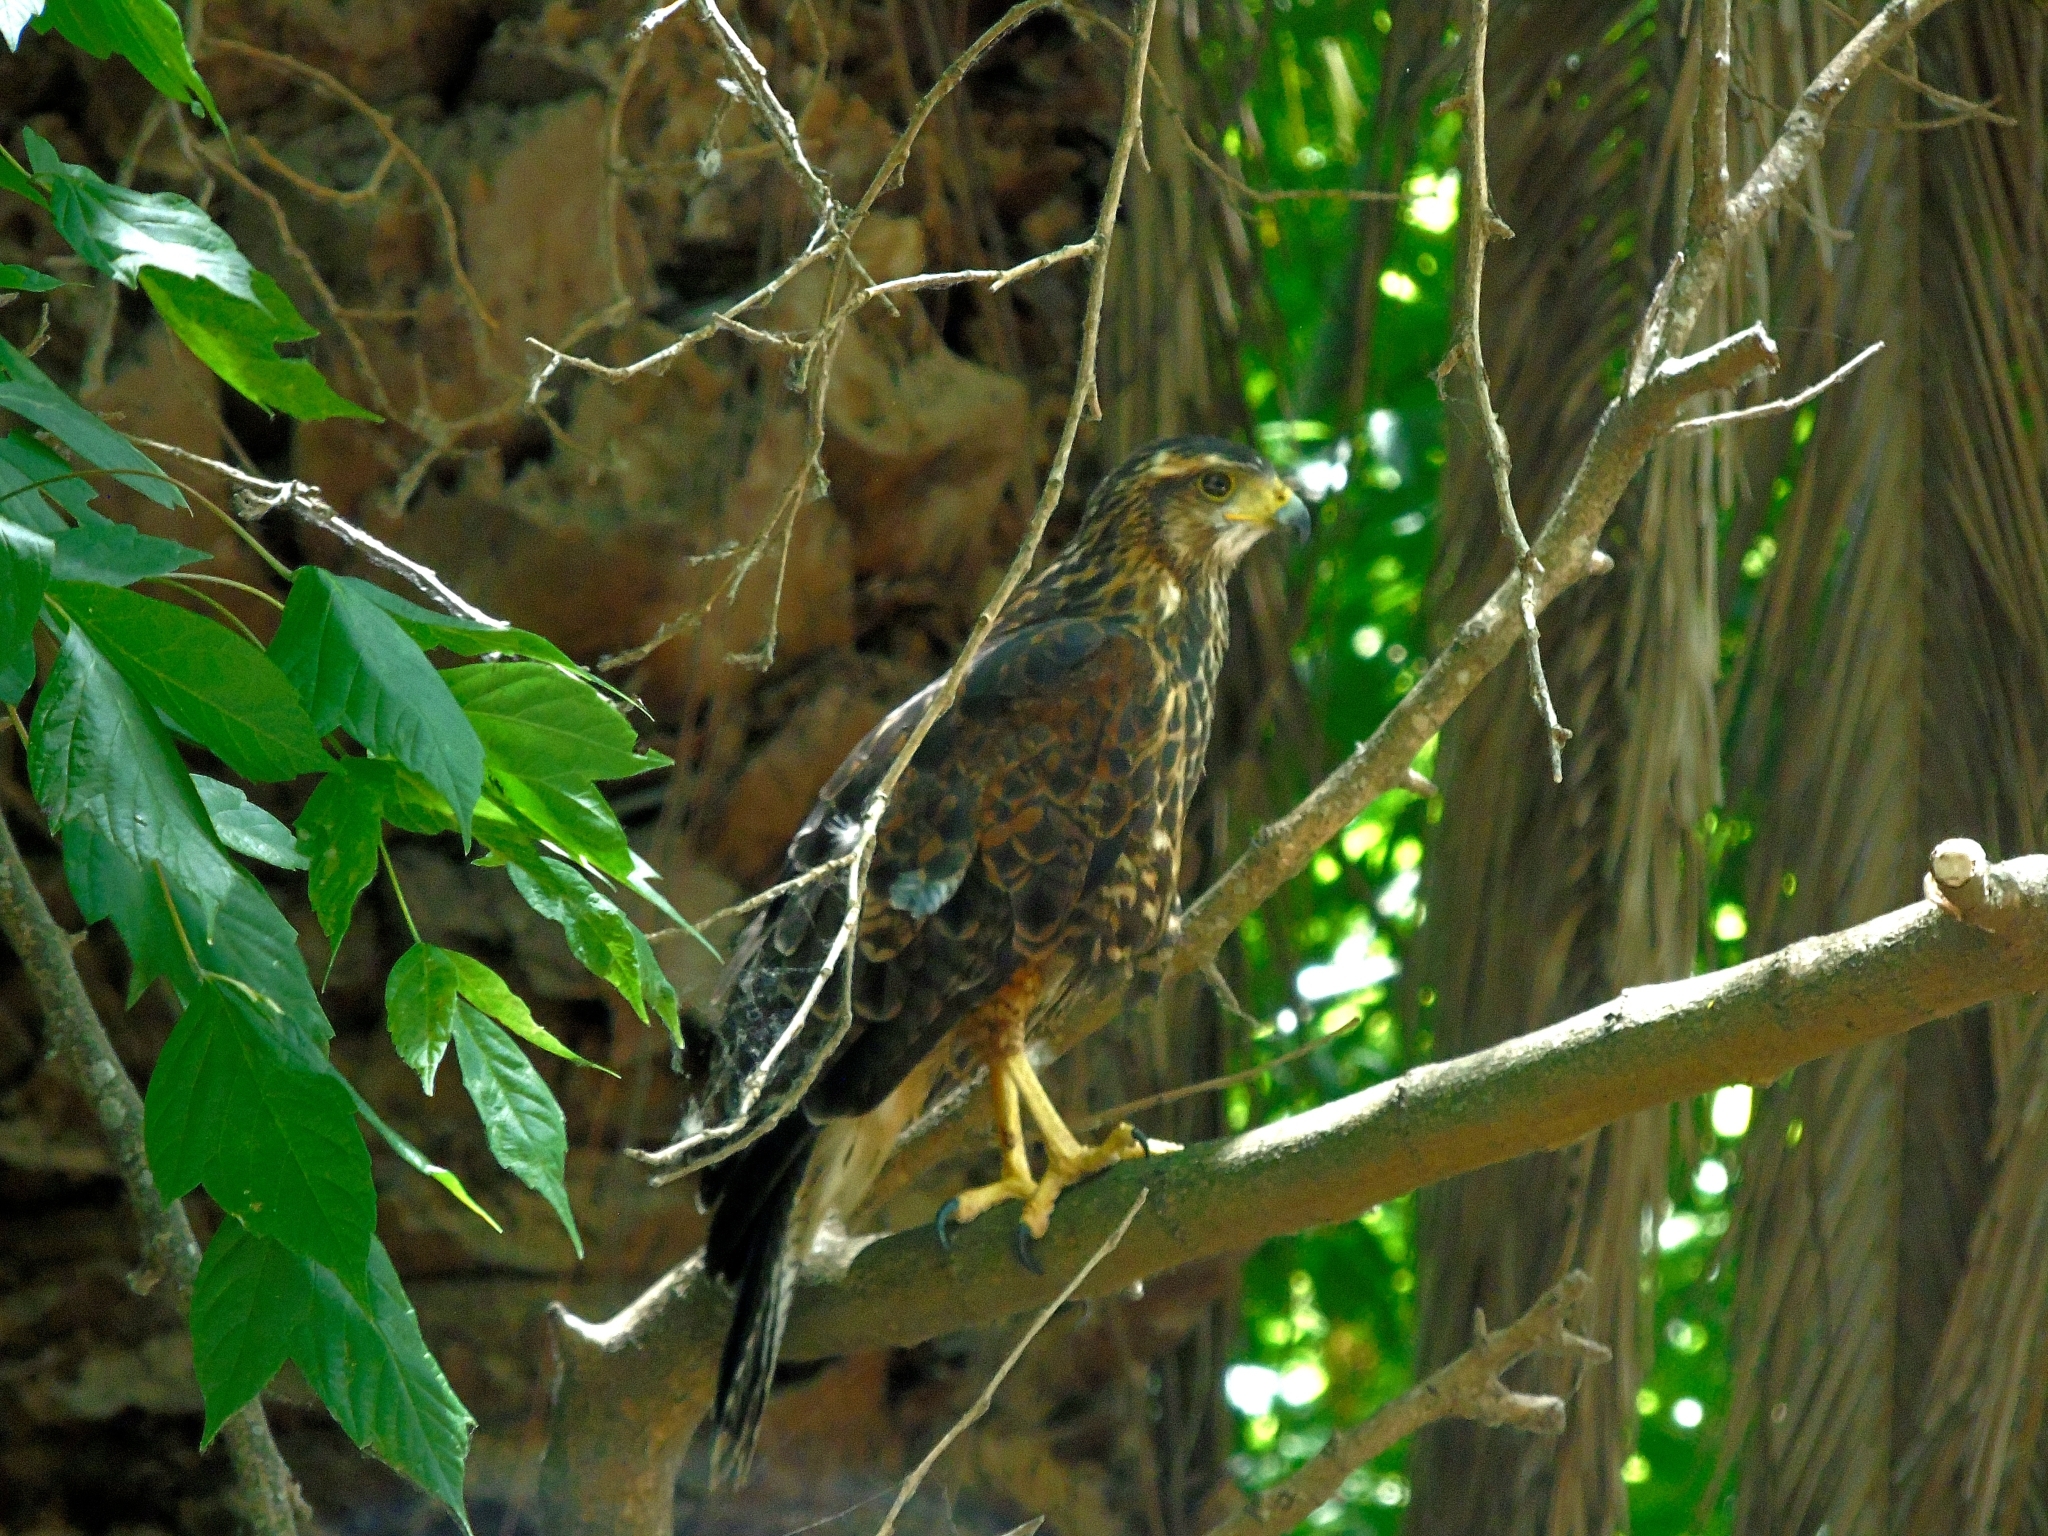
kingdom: Animalia
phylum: Chordata
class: Aves
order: Accipitriformes
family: Accipitridae
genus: Parabuteo
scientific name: Parabuteo unicinctus
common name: Harris's hawk
